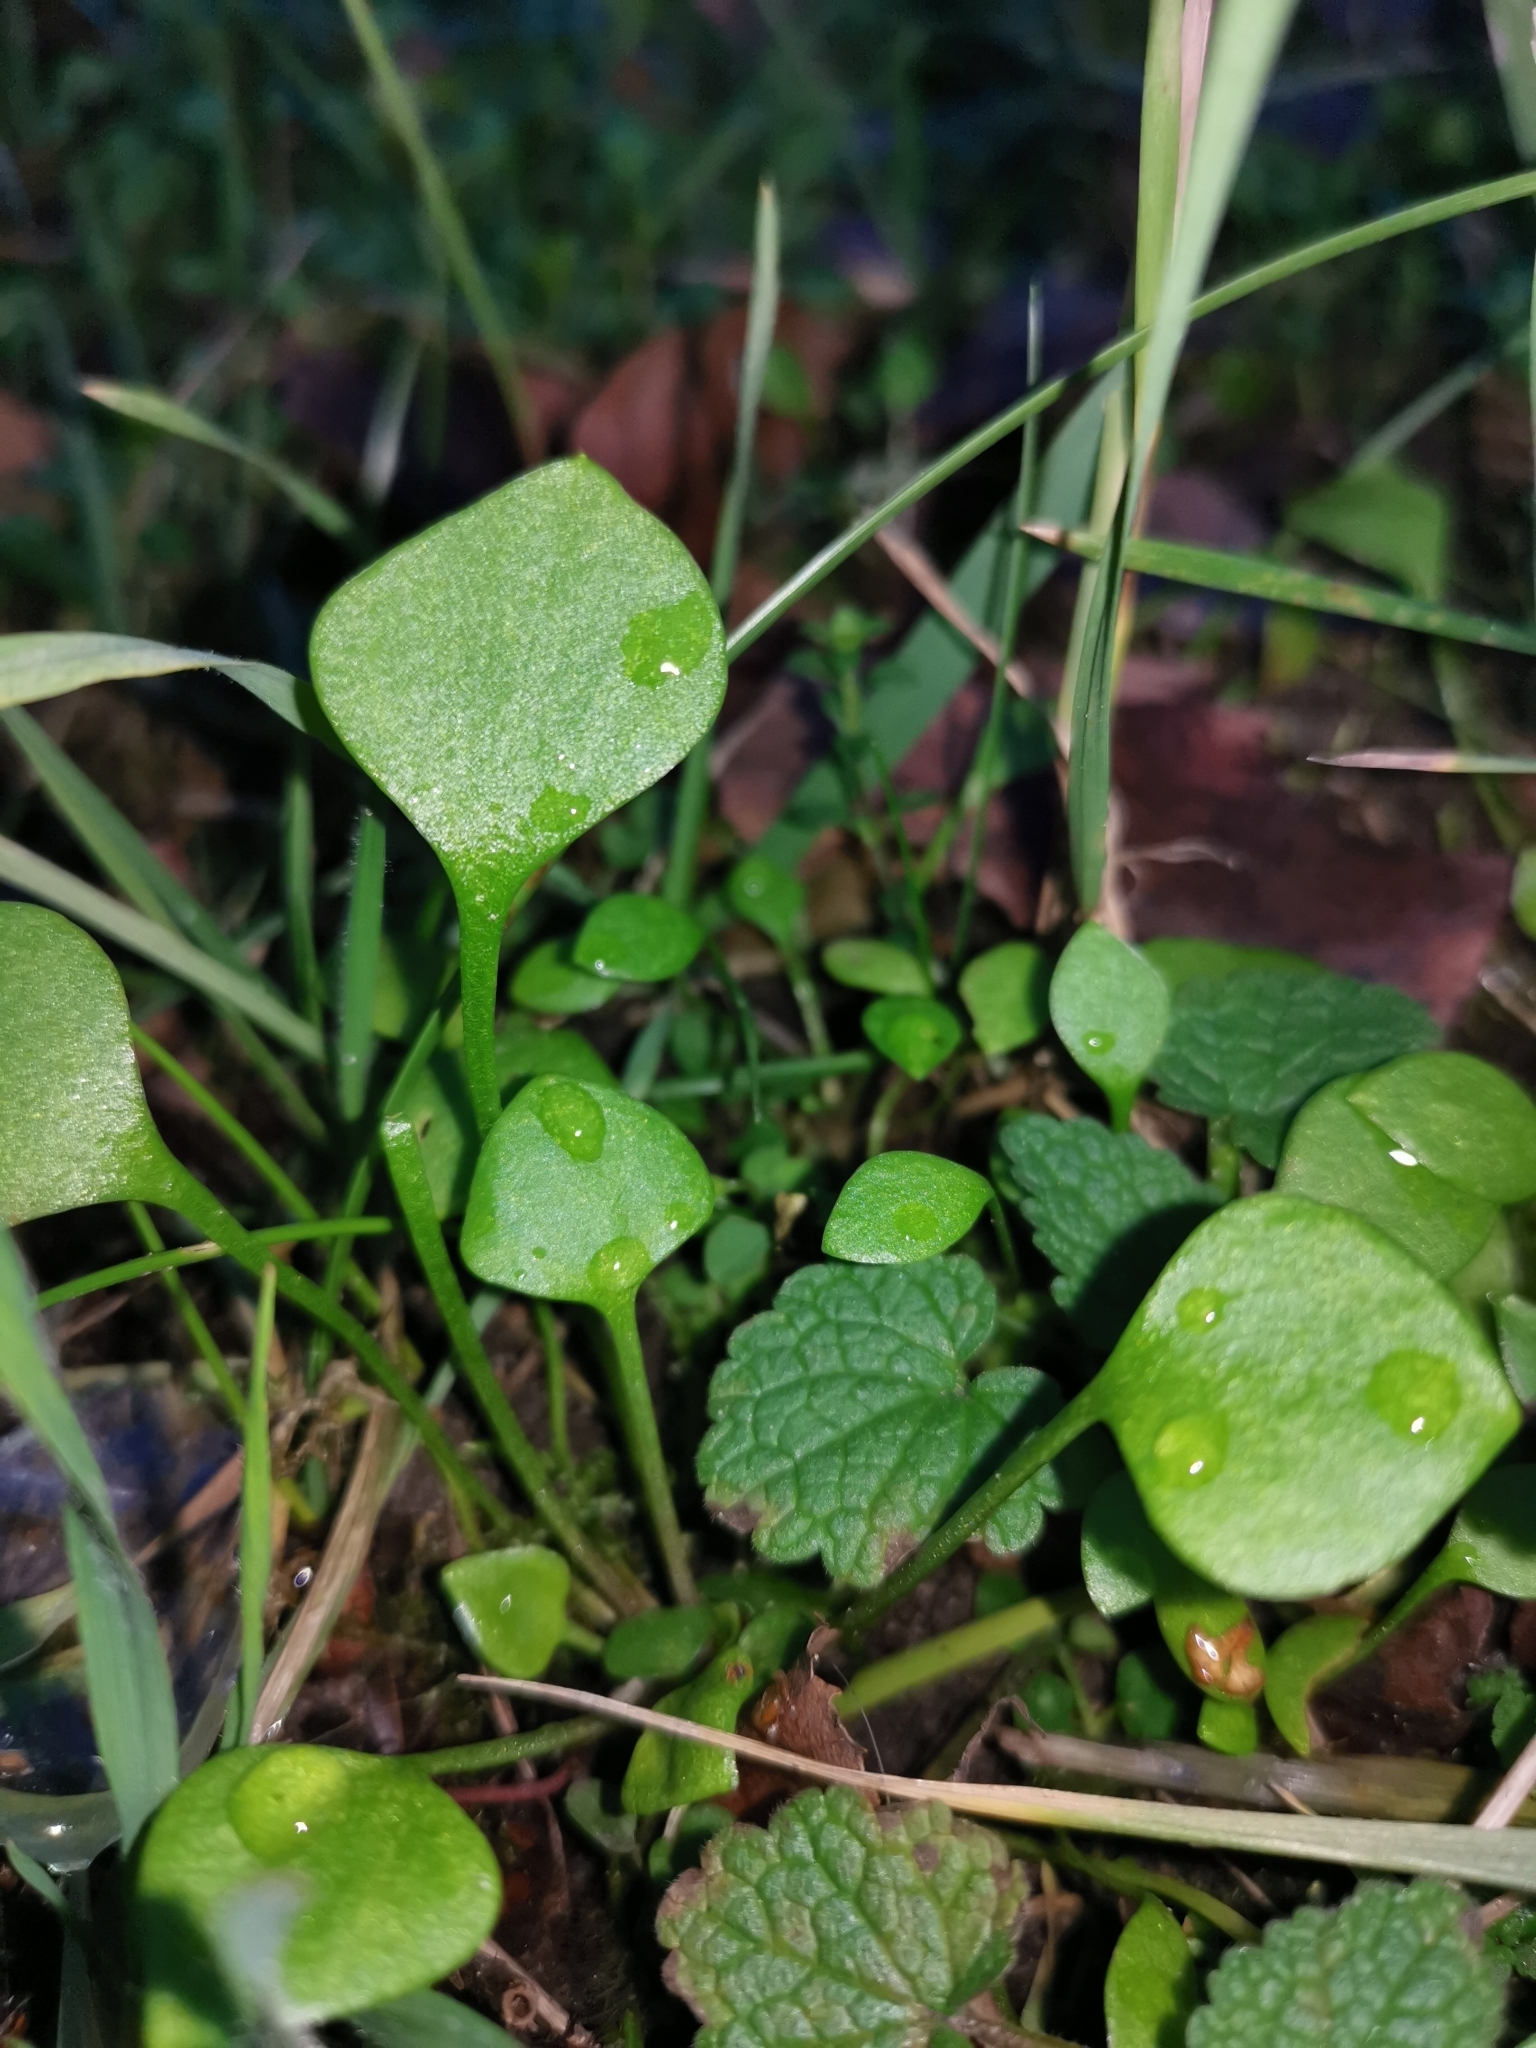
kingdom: Plantae
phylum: Tracheophyta
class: Magnoliopsida
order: Caryophyllales
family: Montiaceae
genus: Claytonia
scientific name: Claytonia perfoliata
